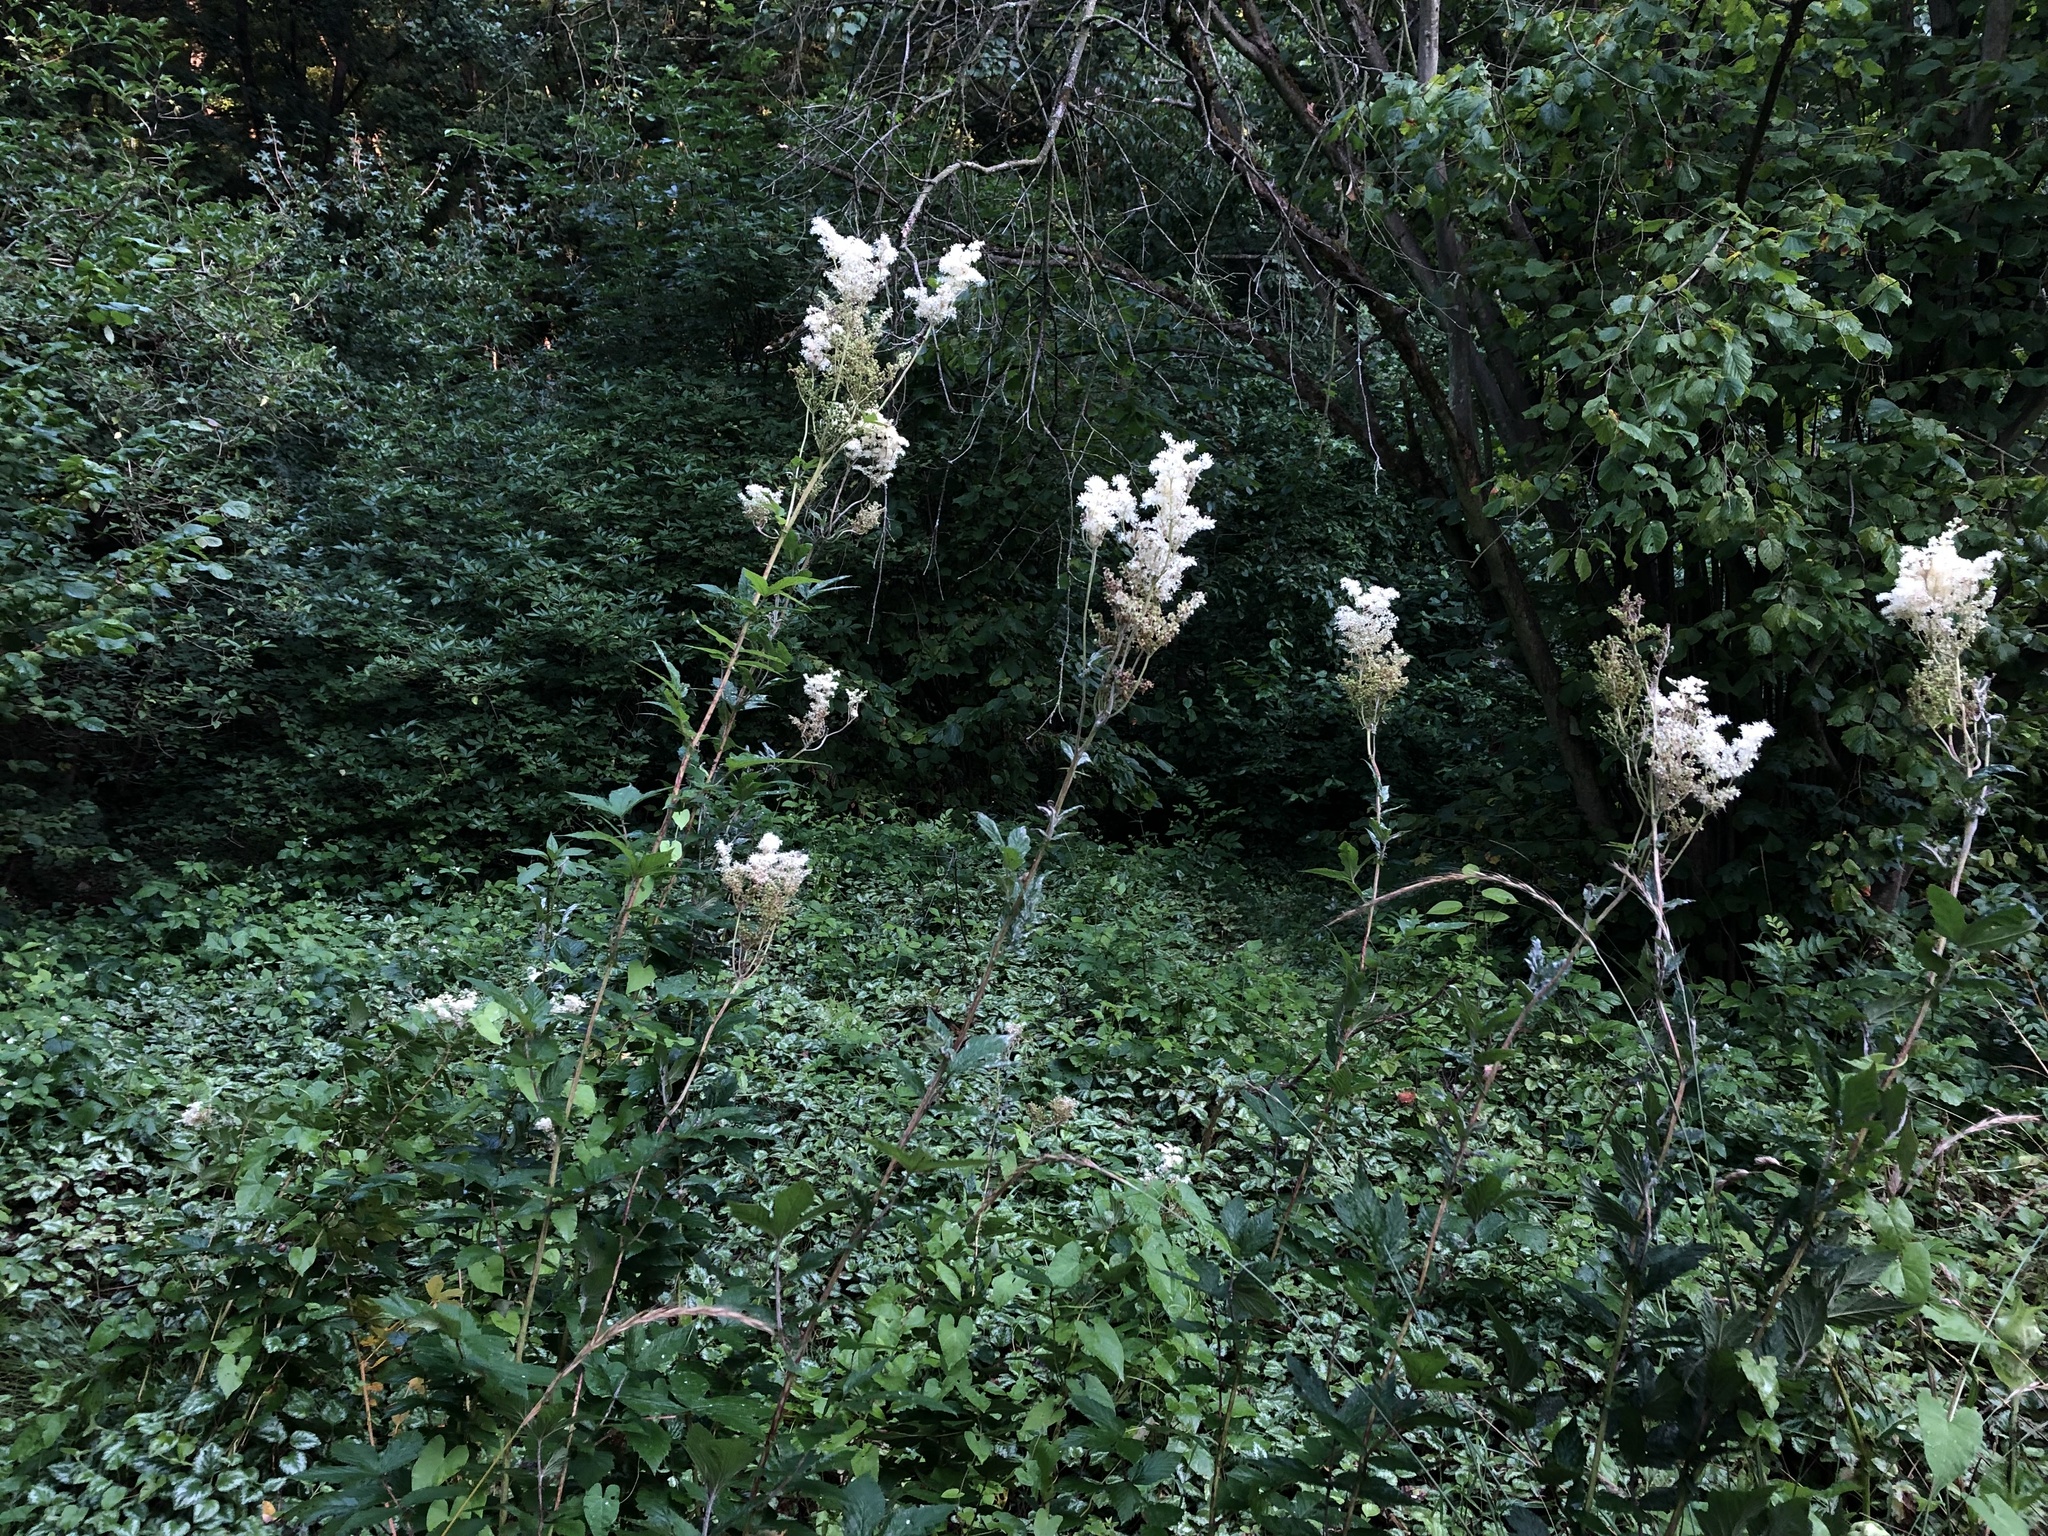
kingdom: Plantae
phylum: Tracheophyta
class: Magnoliopsida
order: Rosales
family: Rosaceae
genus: Filipendula
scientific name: Filipendula ulmaria
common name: Meadowsweet
